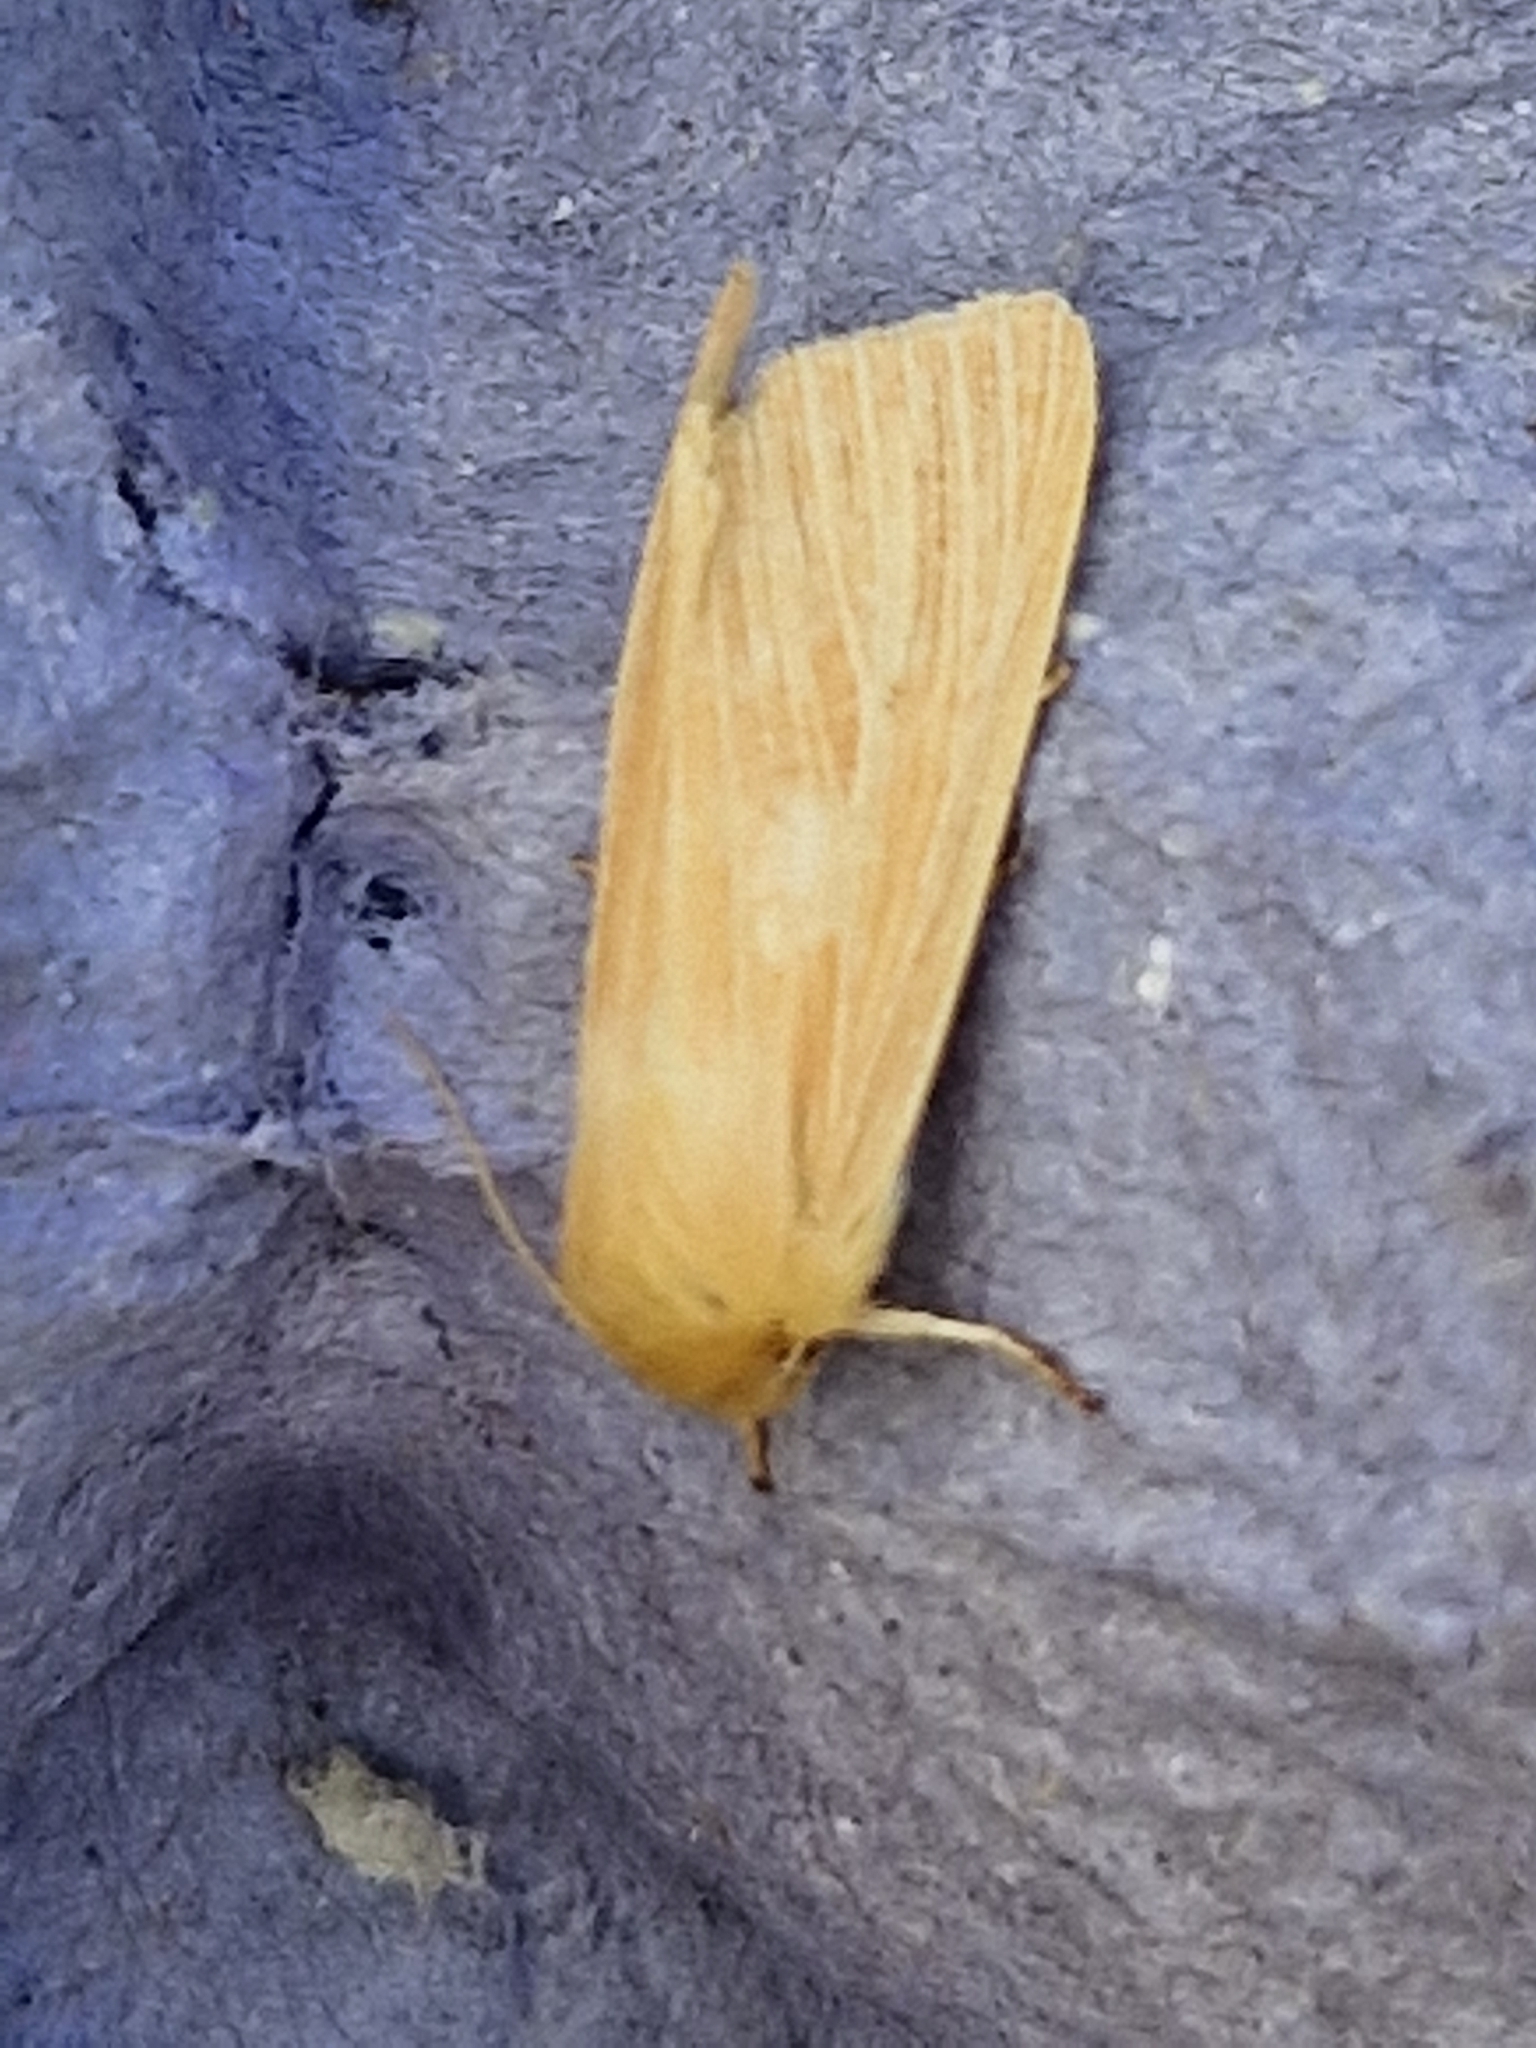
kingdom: Animalia
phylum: Arthropoda
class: Insecta
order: Lepidoptera
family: Noctuidae
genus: Mythimna
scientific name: Mythimna pallens
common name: Common wainscot
